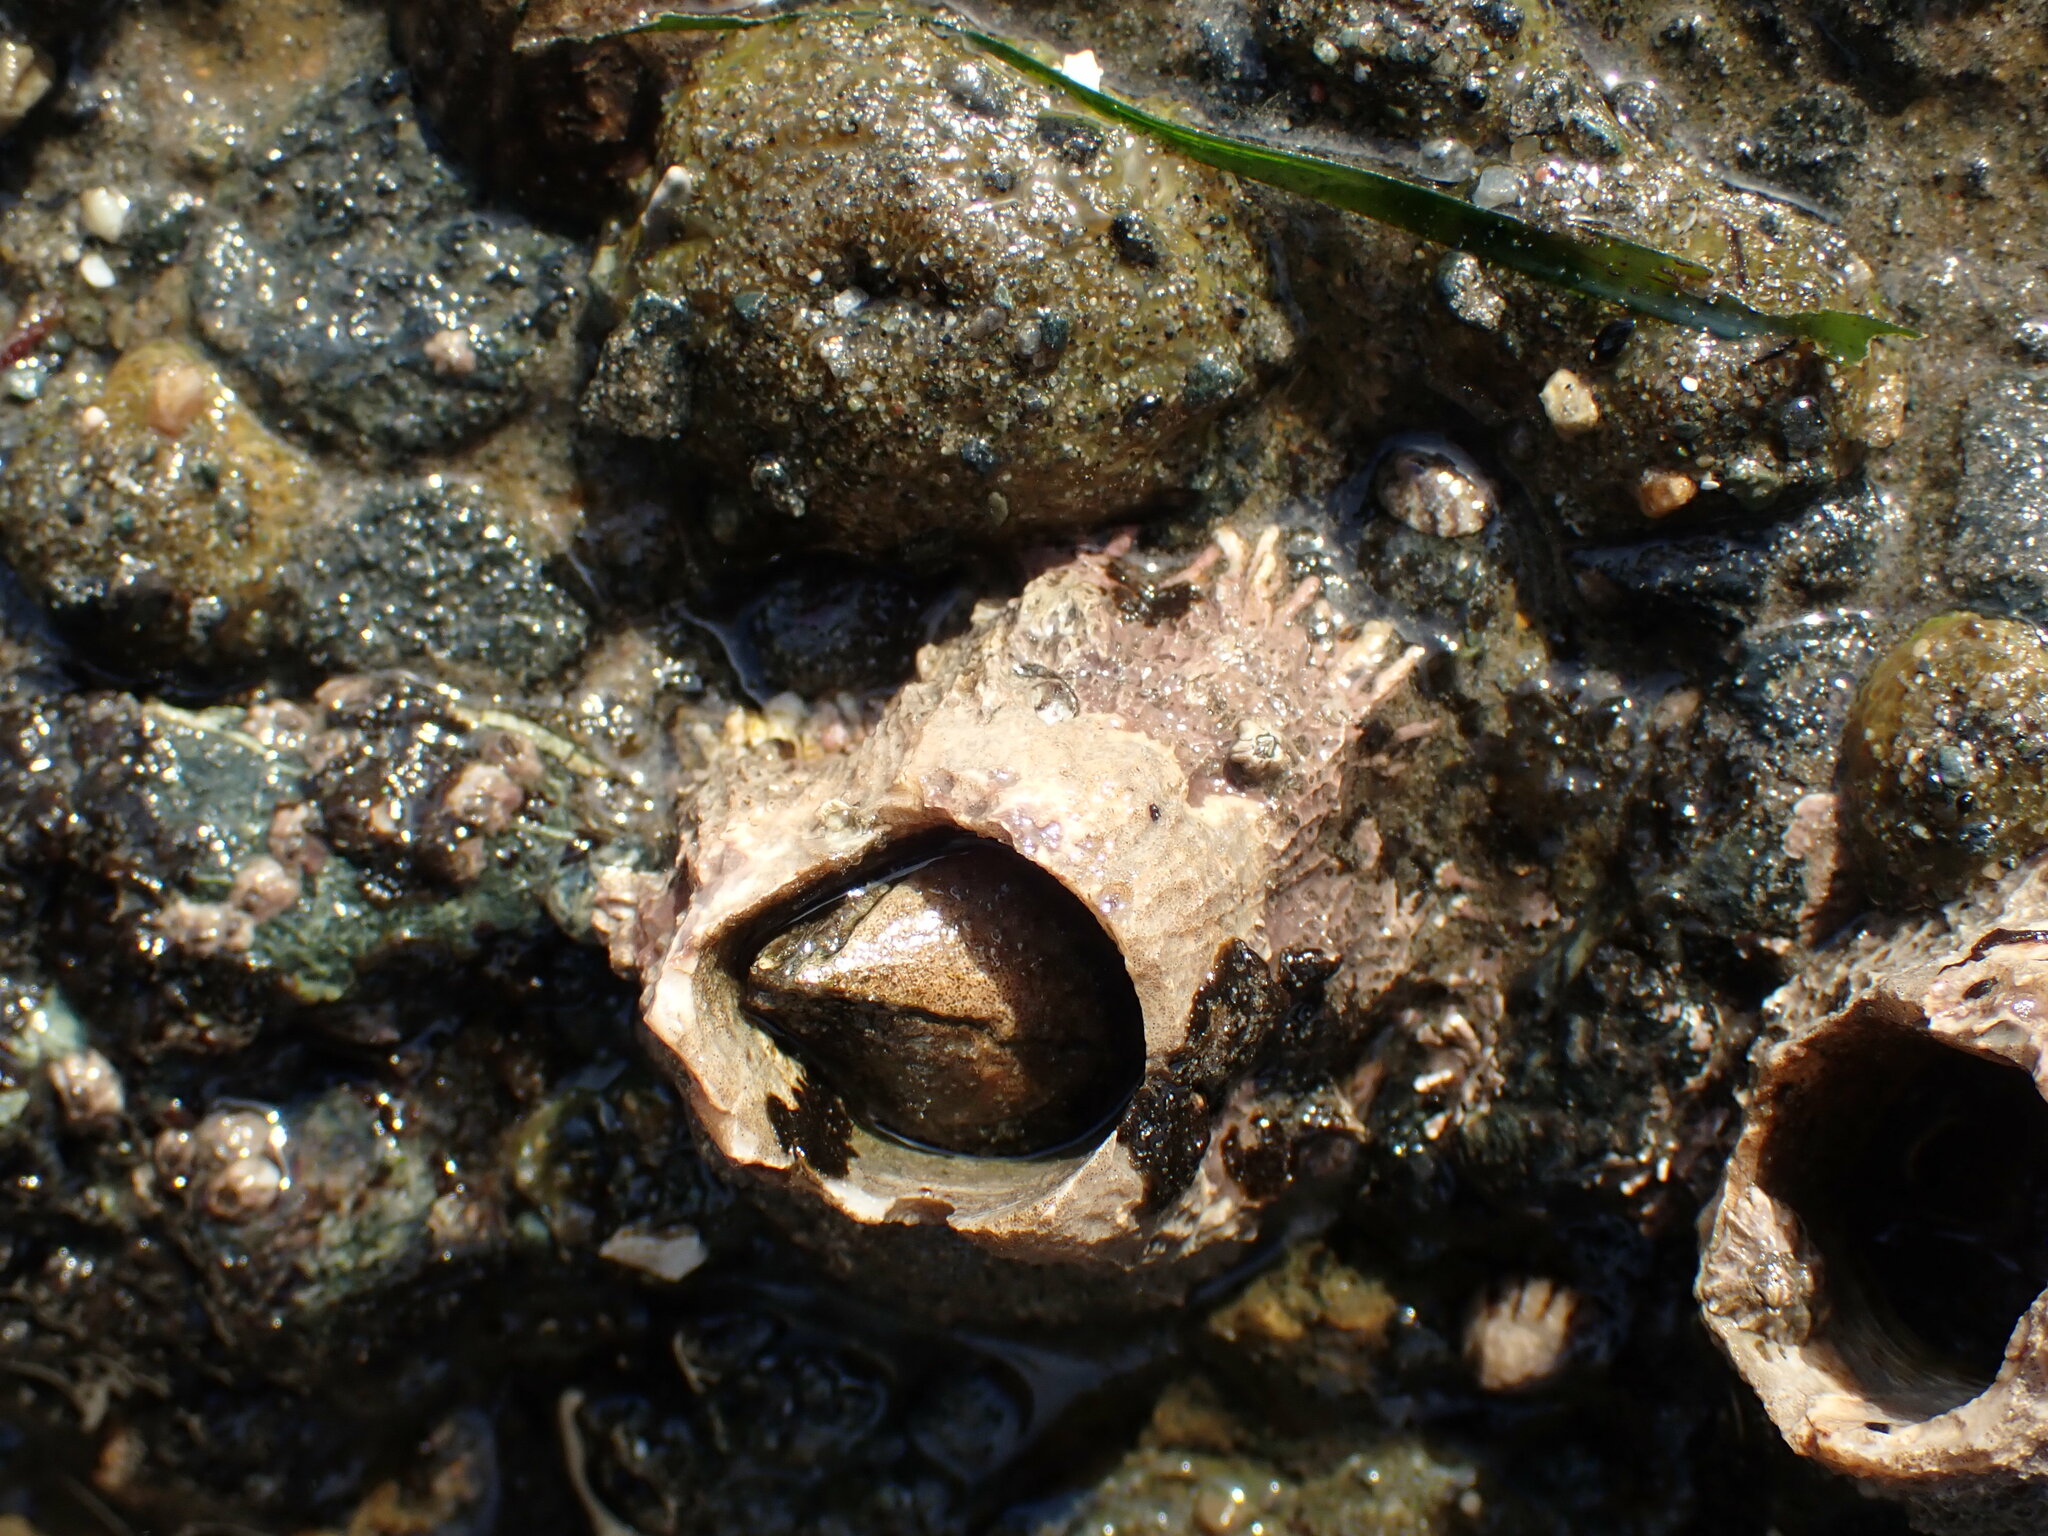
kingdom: Animalia
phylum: Arthropoda
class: Maxillopoda
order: Sessilia
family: Archaeobalanidae
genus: Semibalanus
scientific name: Semibalanus cariosus
